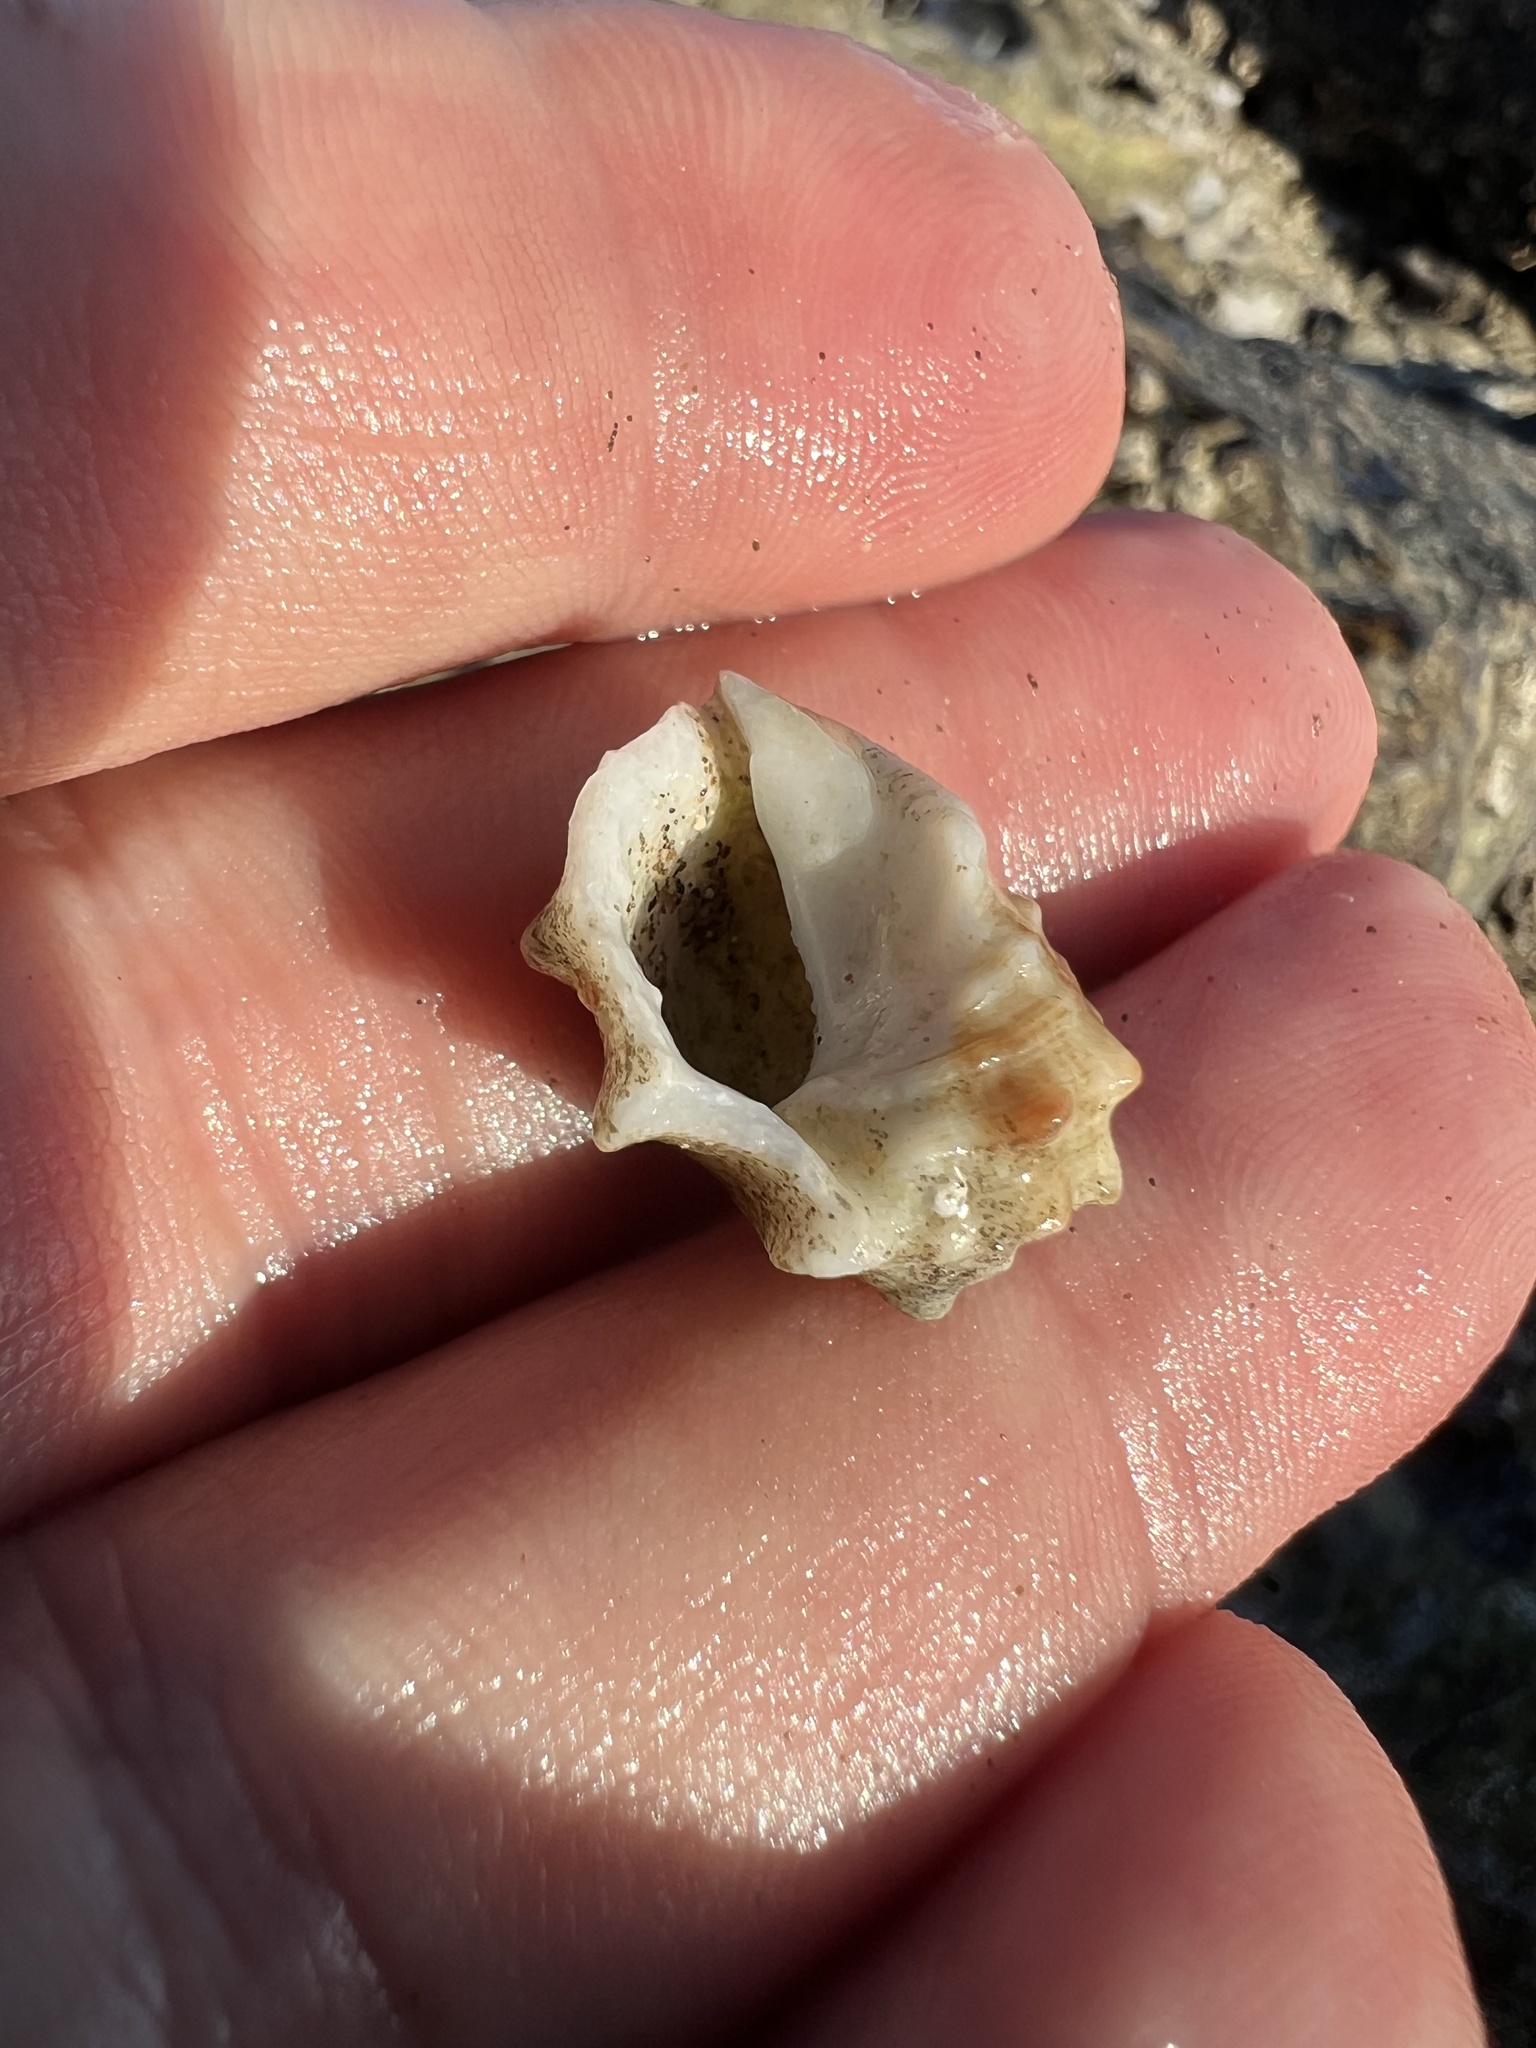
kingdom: Animalia
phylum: Mollusca
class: Gastropoda
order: Neogastropoda
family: Muricidae
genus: Acanthais
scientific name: Acanthais triangularis
